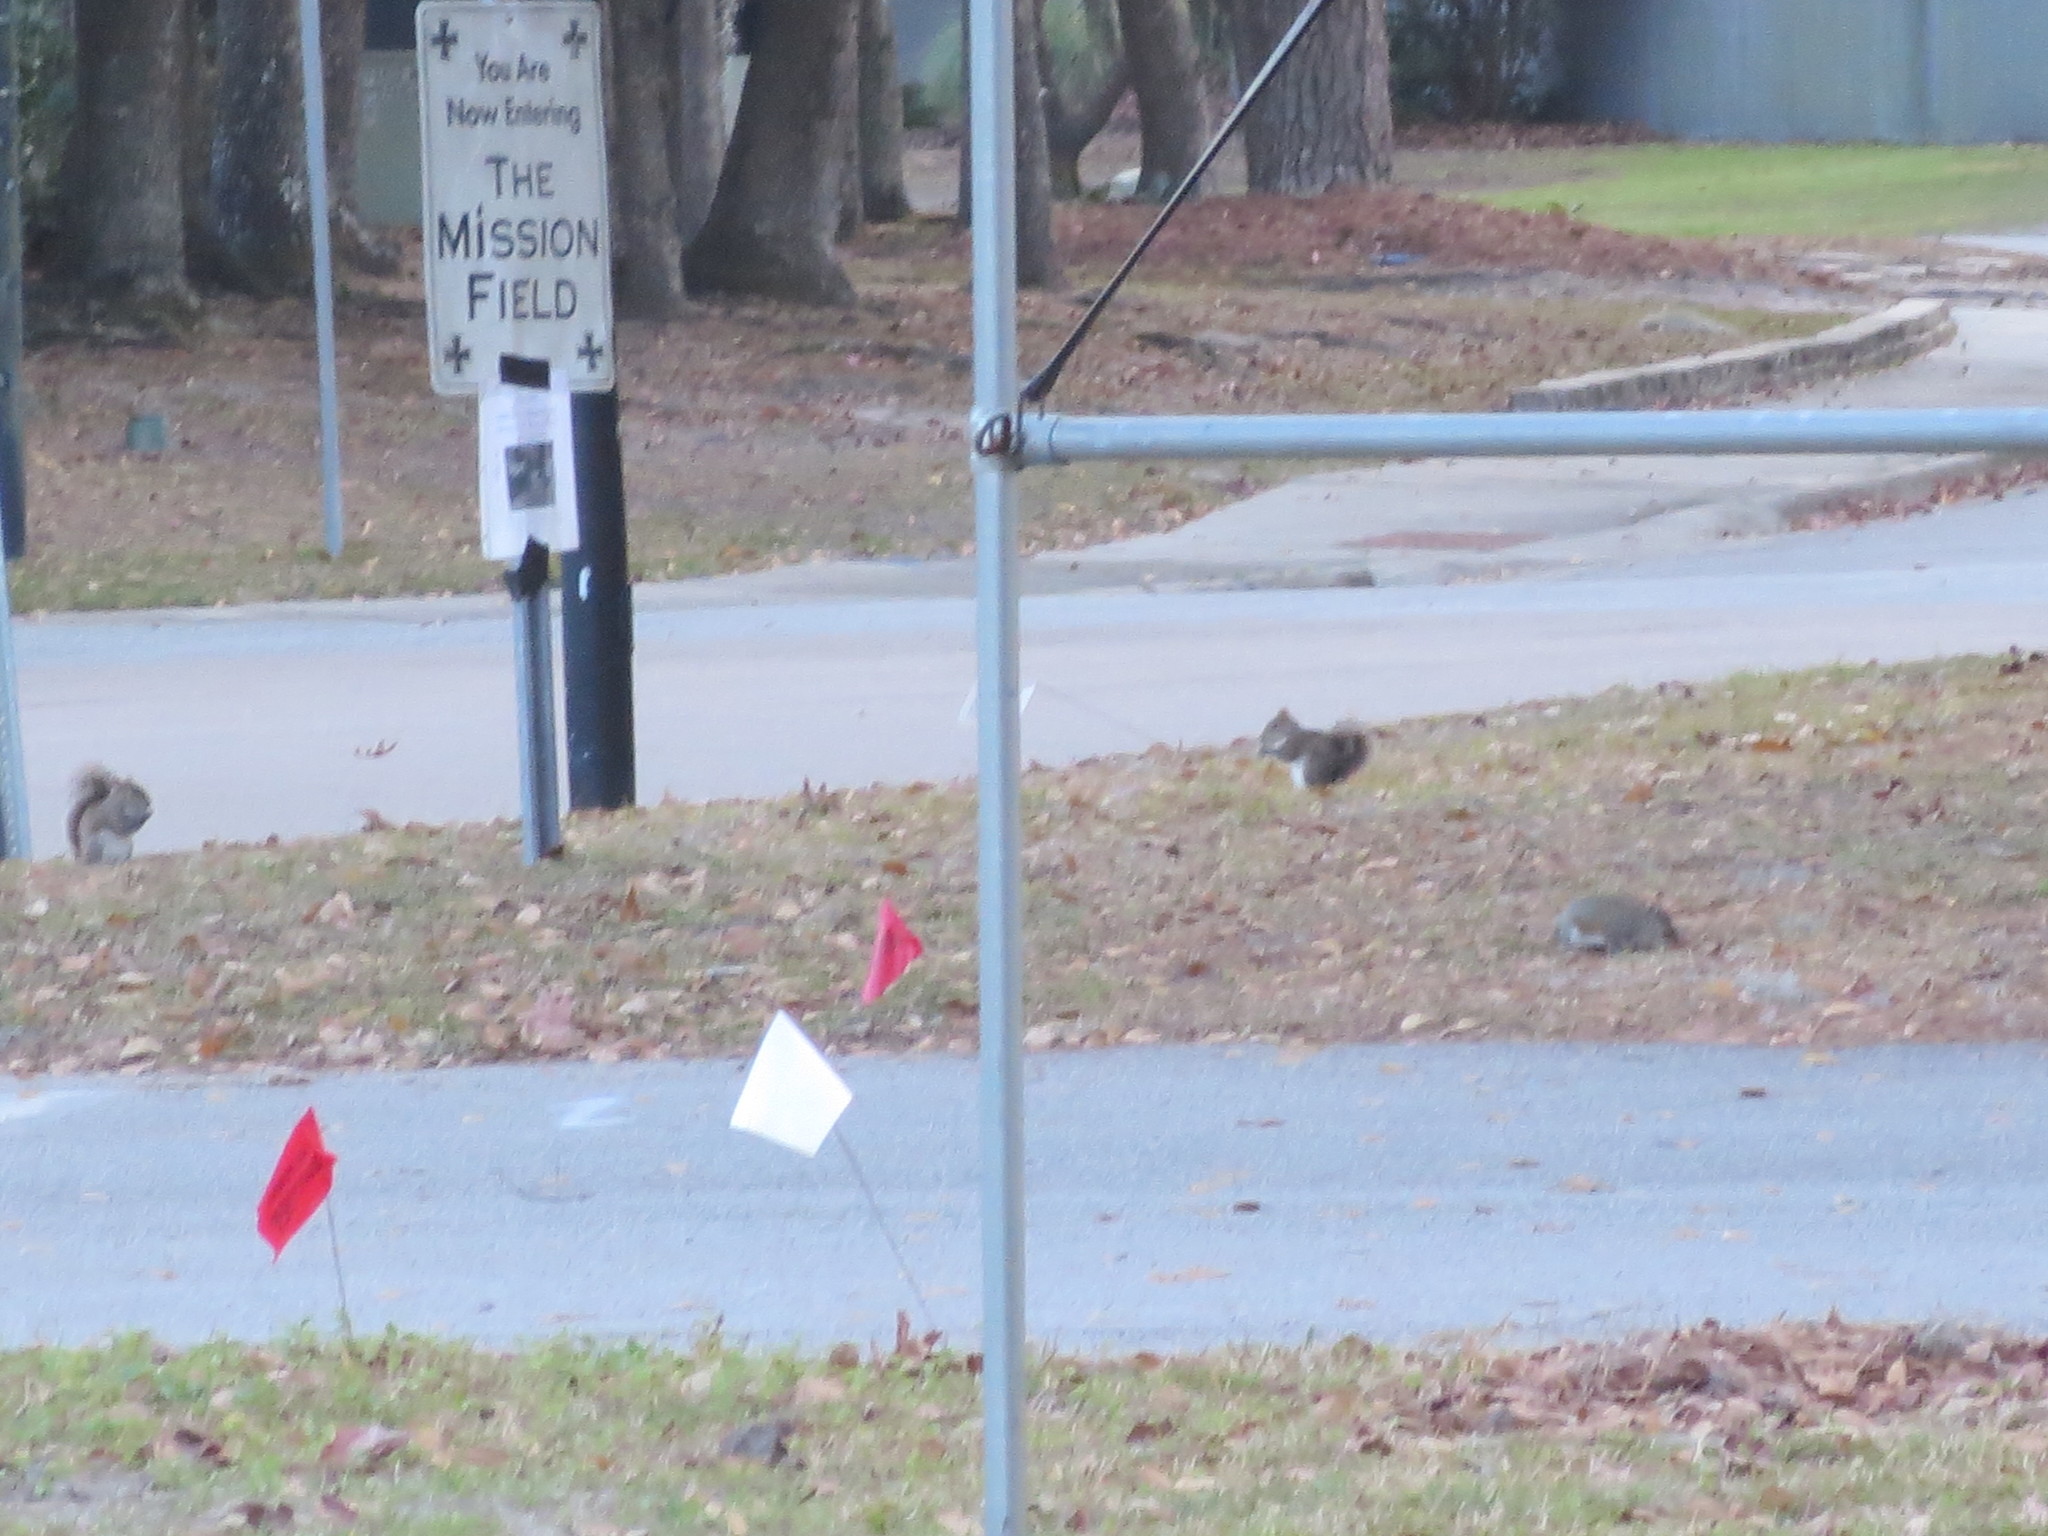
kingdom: Animalia
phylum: Chordata
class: Mammalia
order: Rodentia
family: Sciuridae
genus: Sciurus
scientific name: Sciurus carolinensis
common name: Eastern gray squirrel
